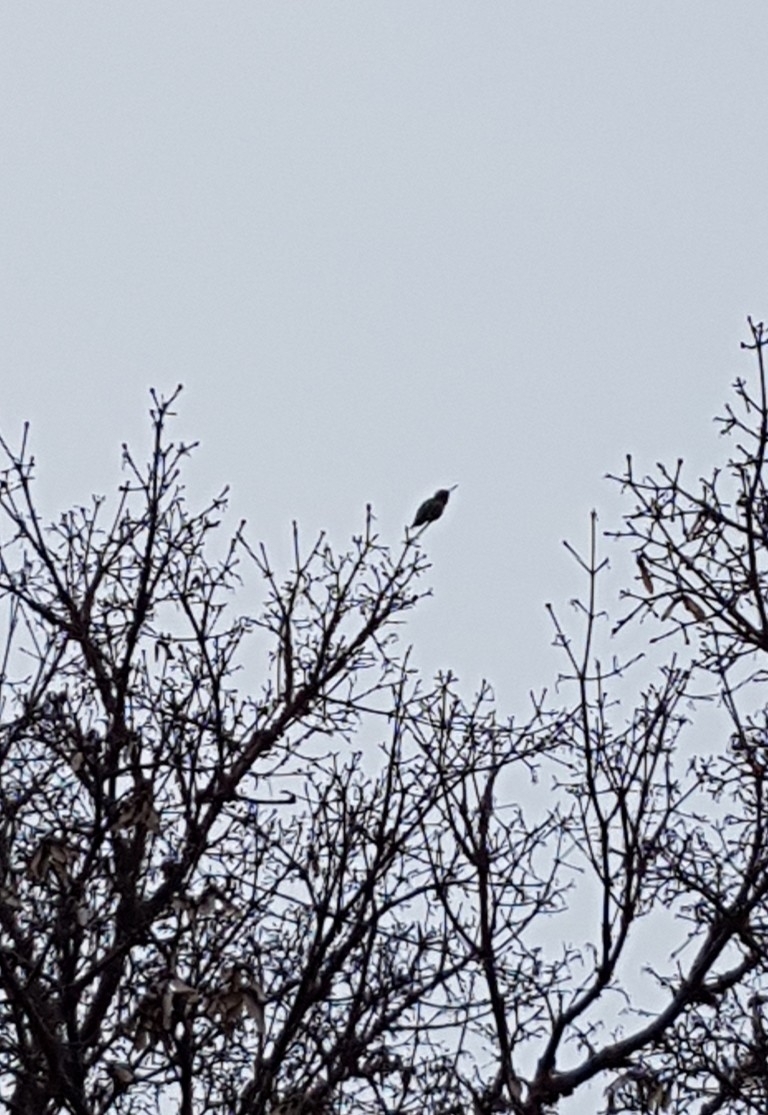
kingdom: Animalia
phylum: Chordata
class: Aves
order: Apodiformes
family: Trochilidae
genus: Calypte
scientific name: Calypte anna
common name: Anna's hummingbird
